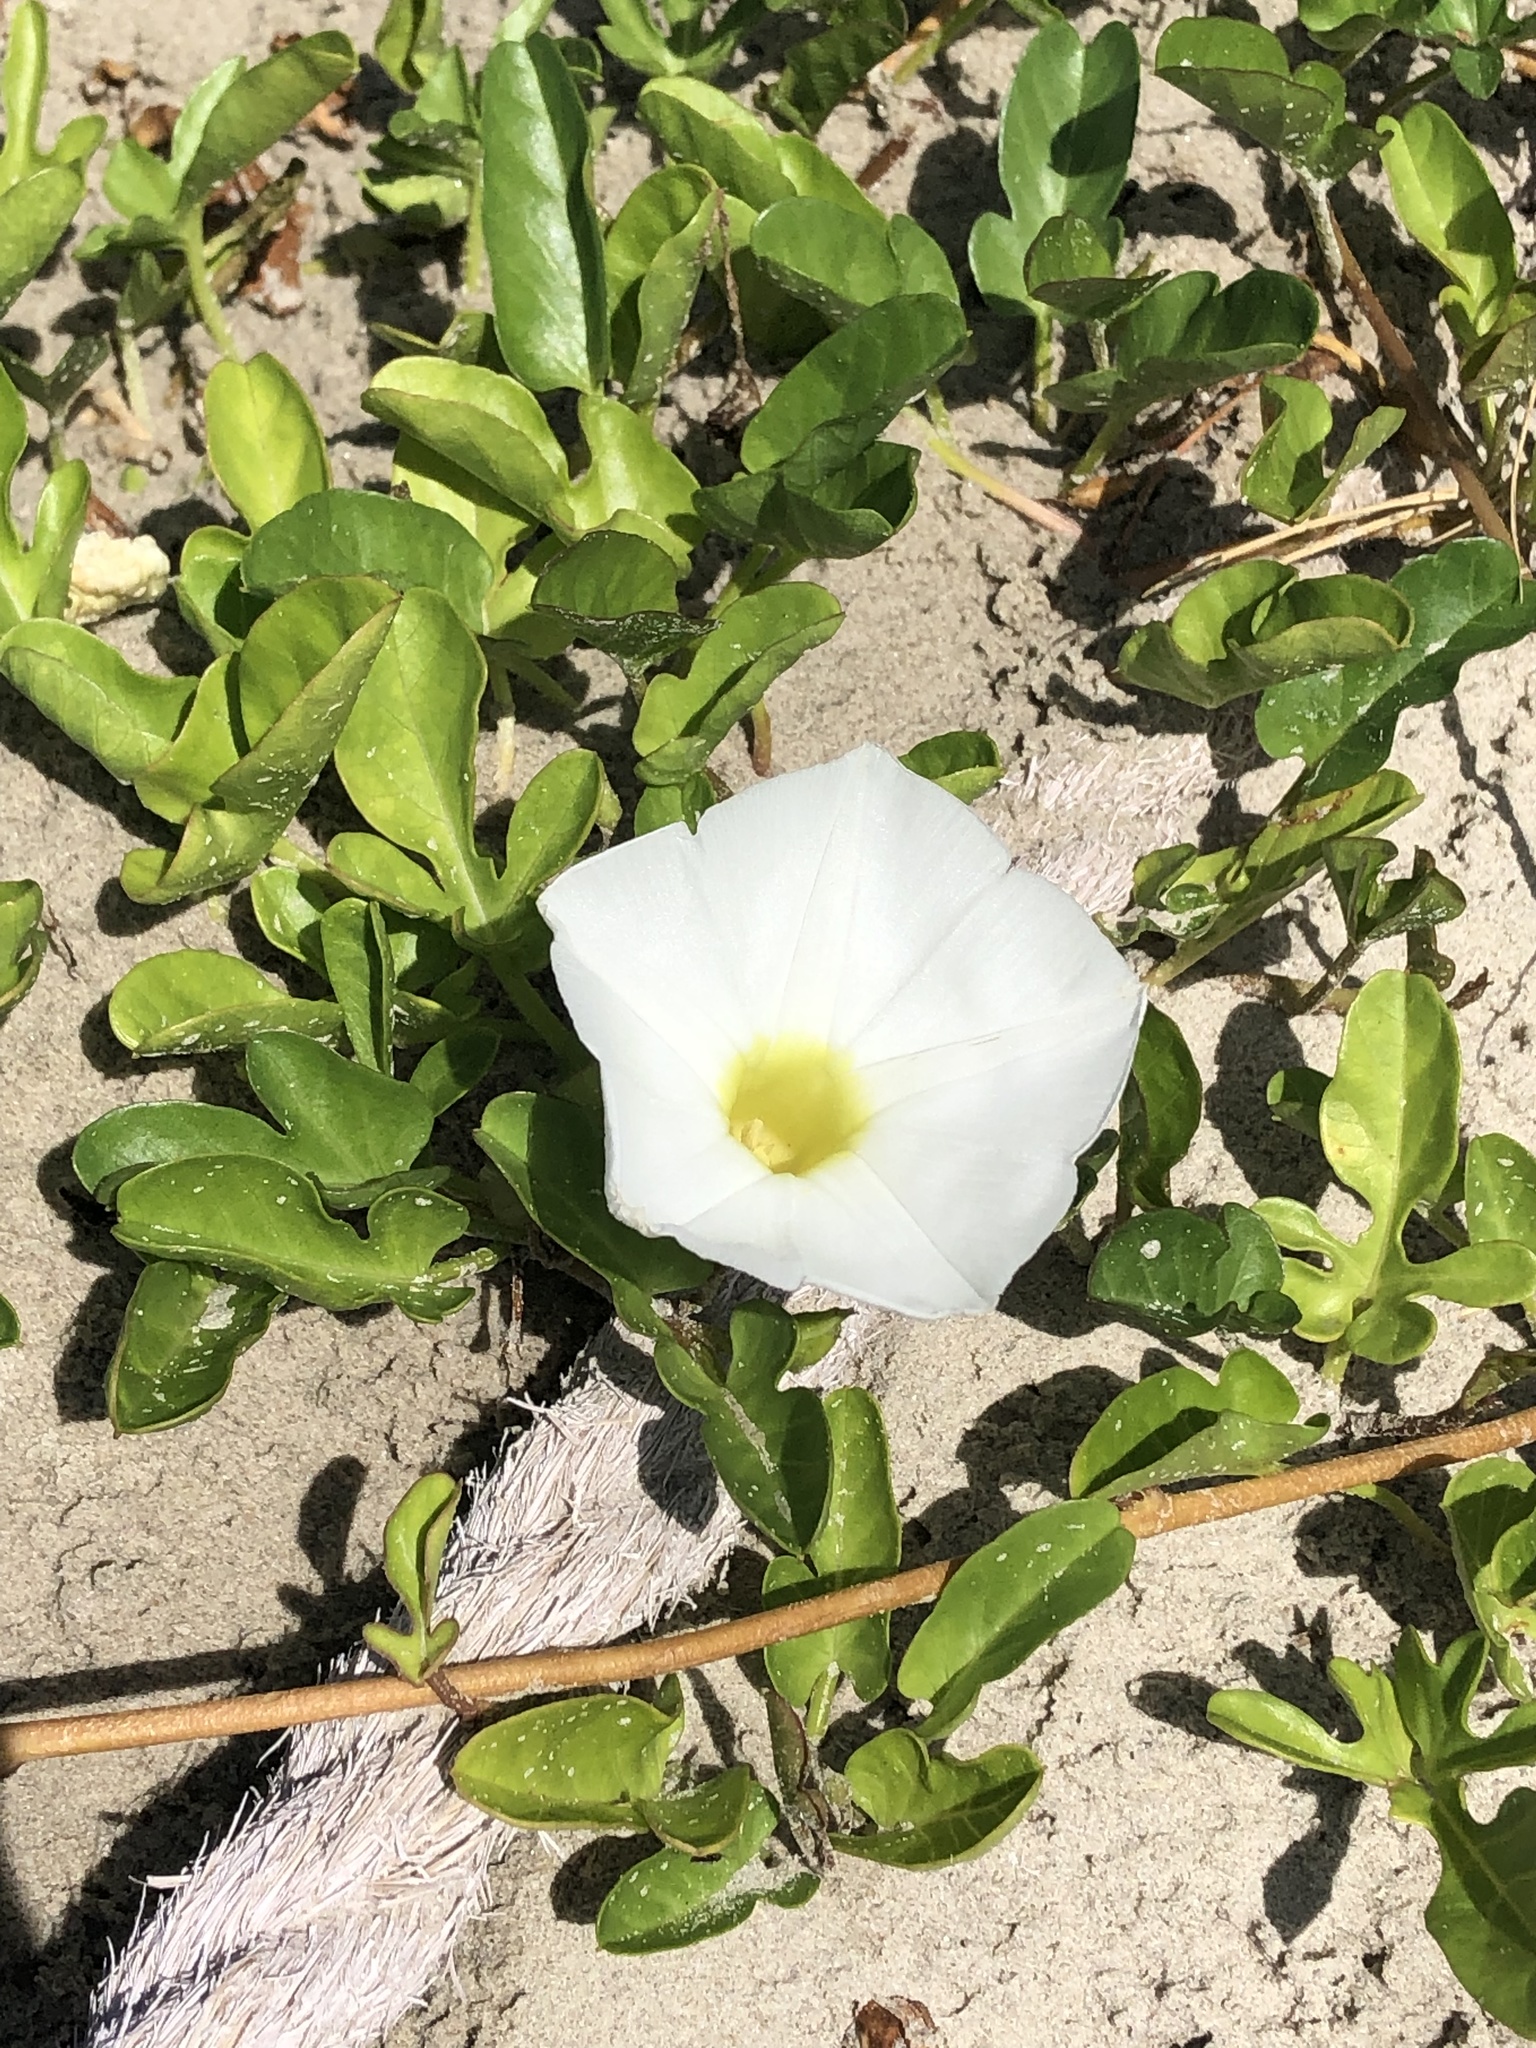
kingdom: Plantae
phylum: Tracheophyta
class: Magnoliopsida
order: Solanales
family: Convolvulaceae
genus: Ipomoea
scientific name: Ipomoea imperati
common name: Fiddle-leaf morning-glory
